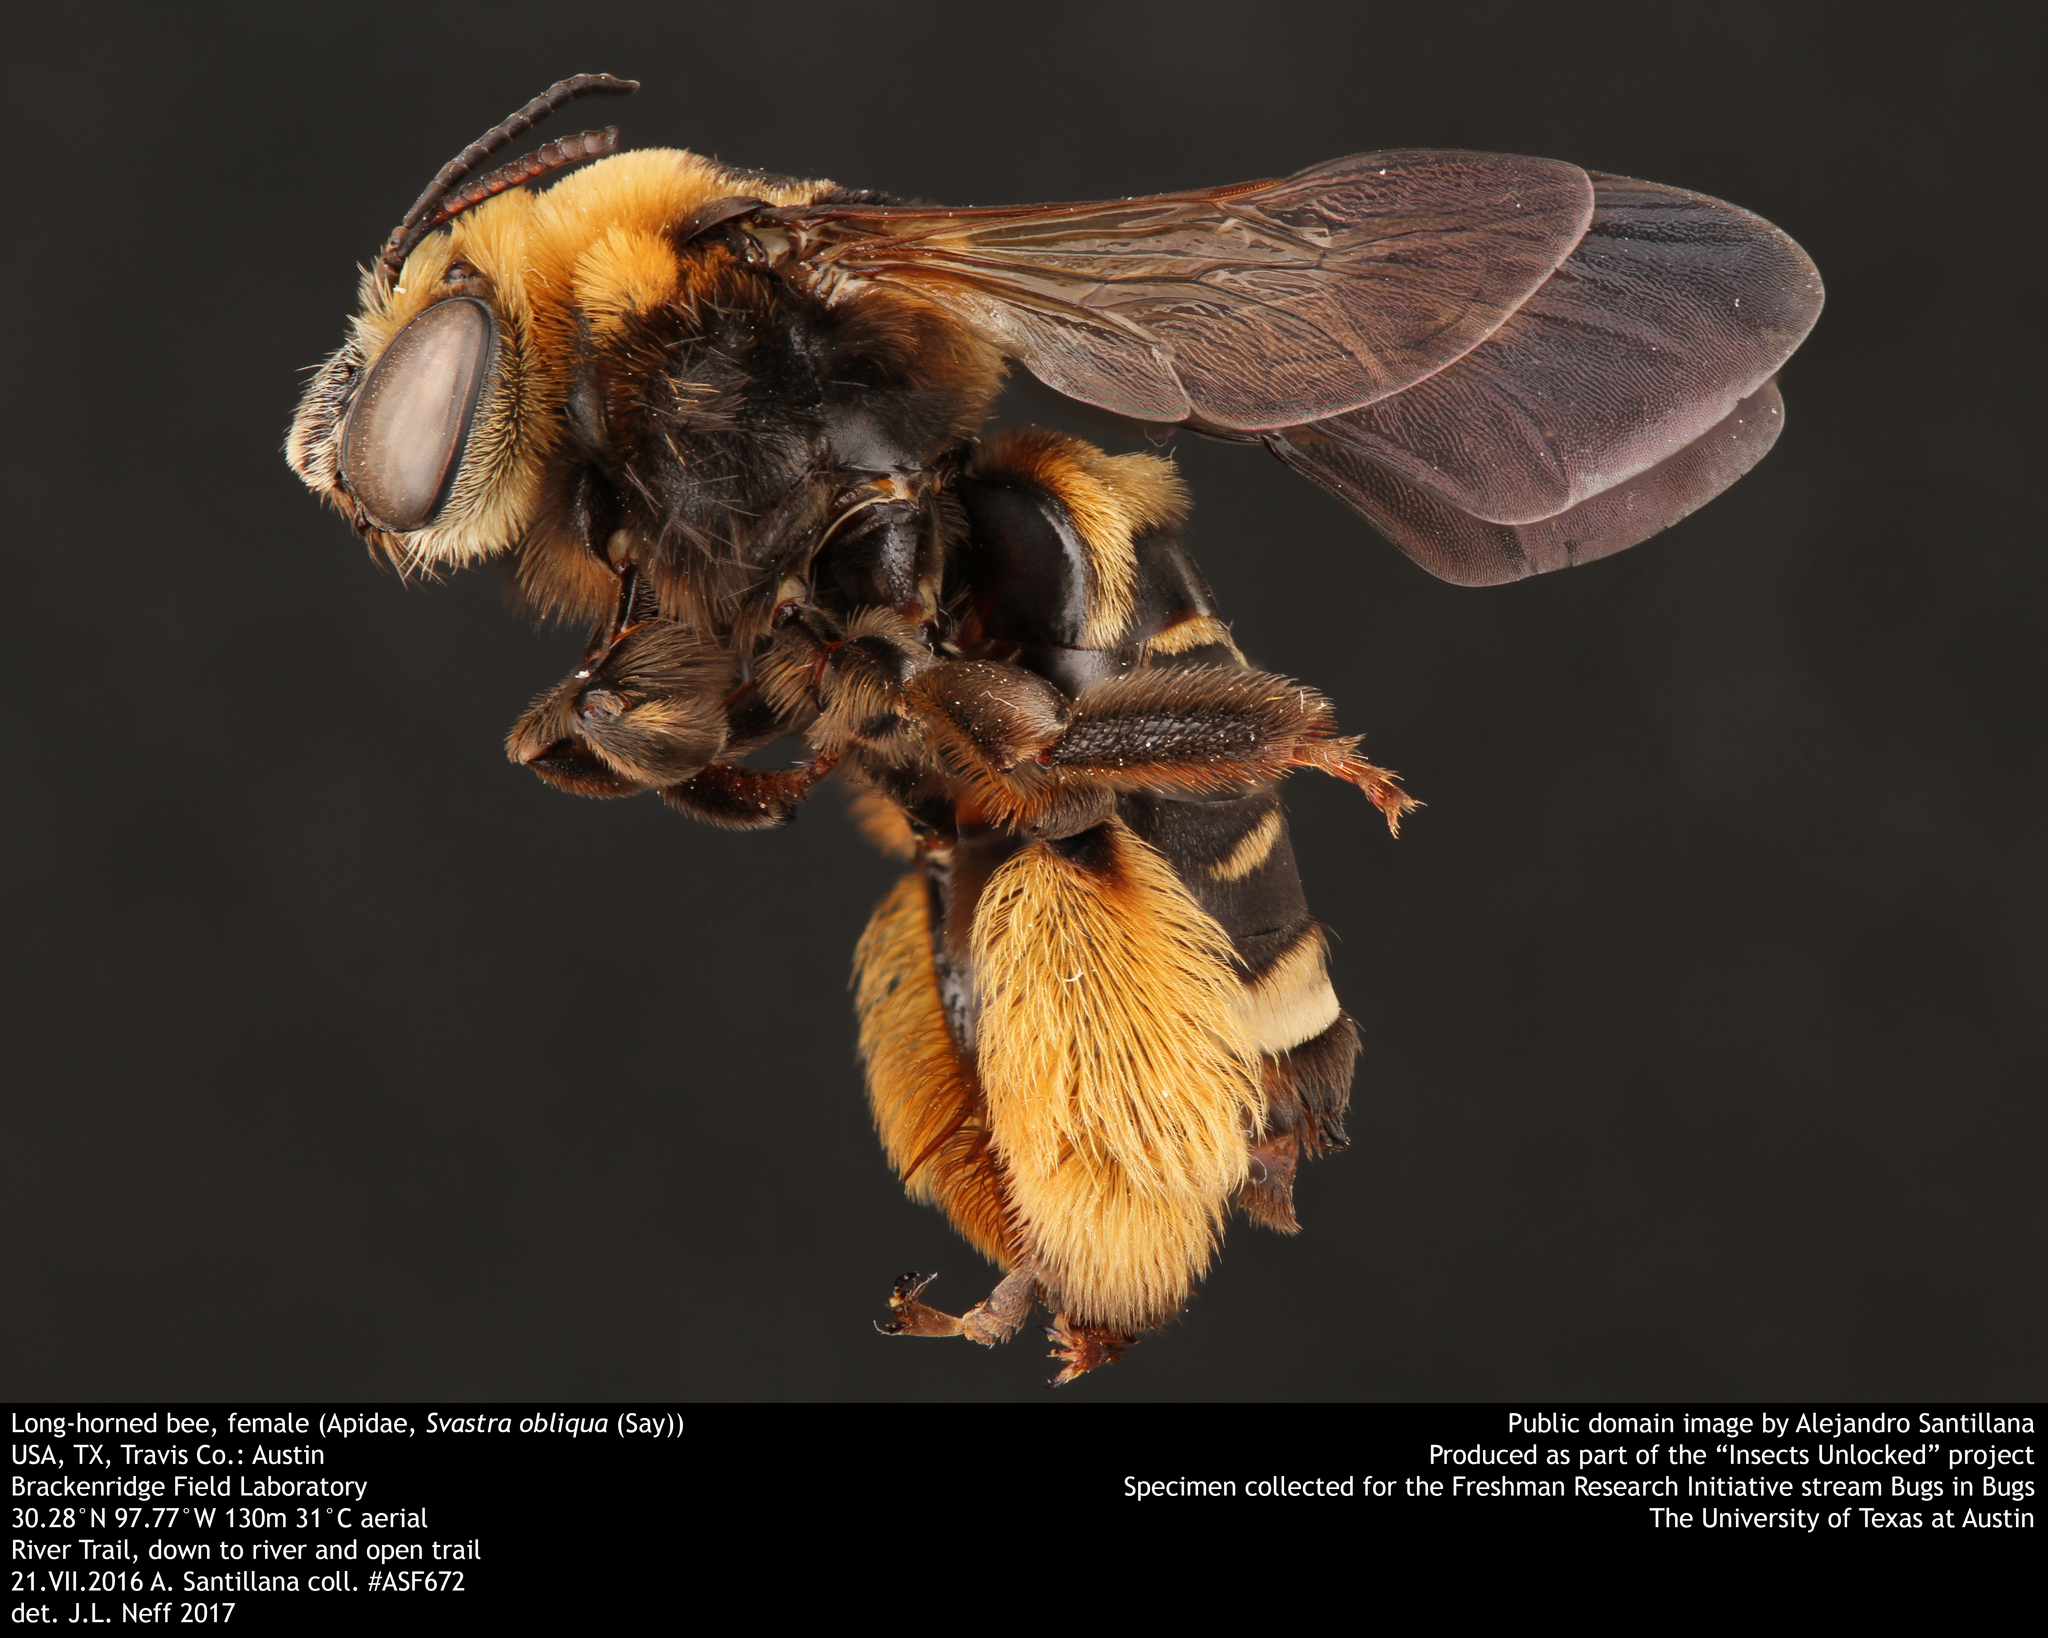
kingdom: Animalia
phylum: Arthropoda
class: Insecta
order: Hymenoptera
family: Apidae
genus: Svastra
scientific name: Svastra obliqua
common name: Oblique longhorn
